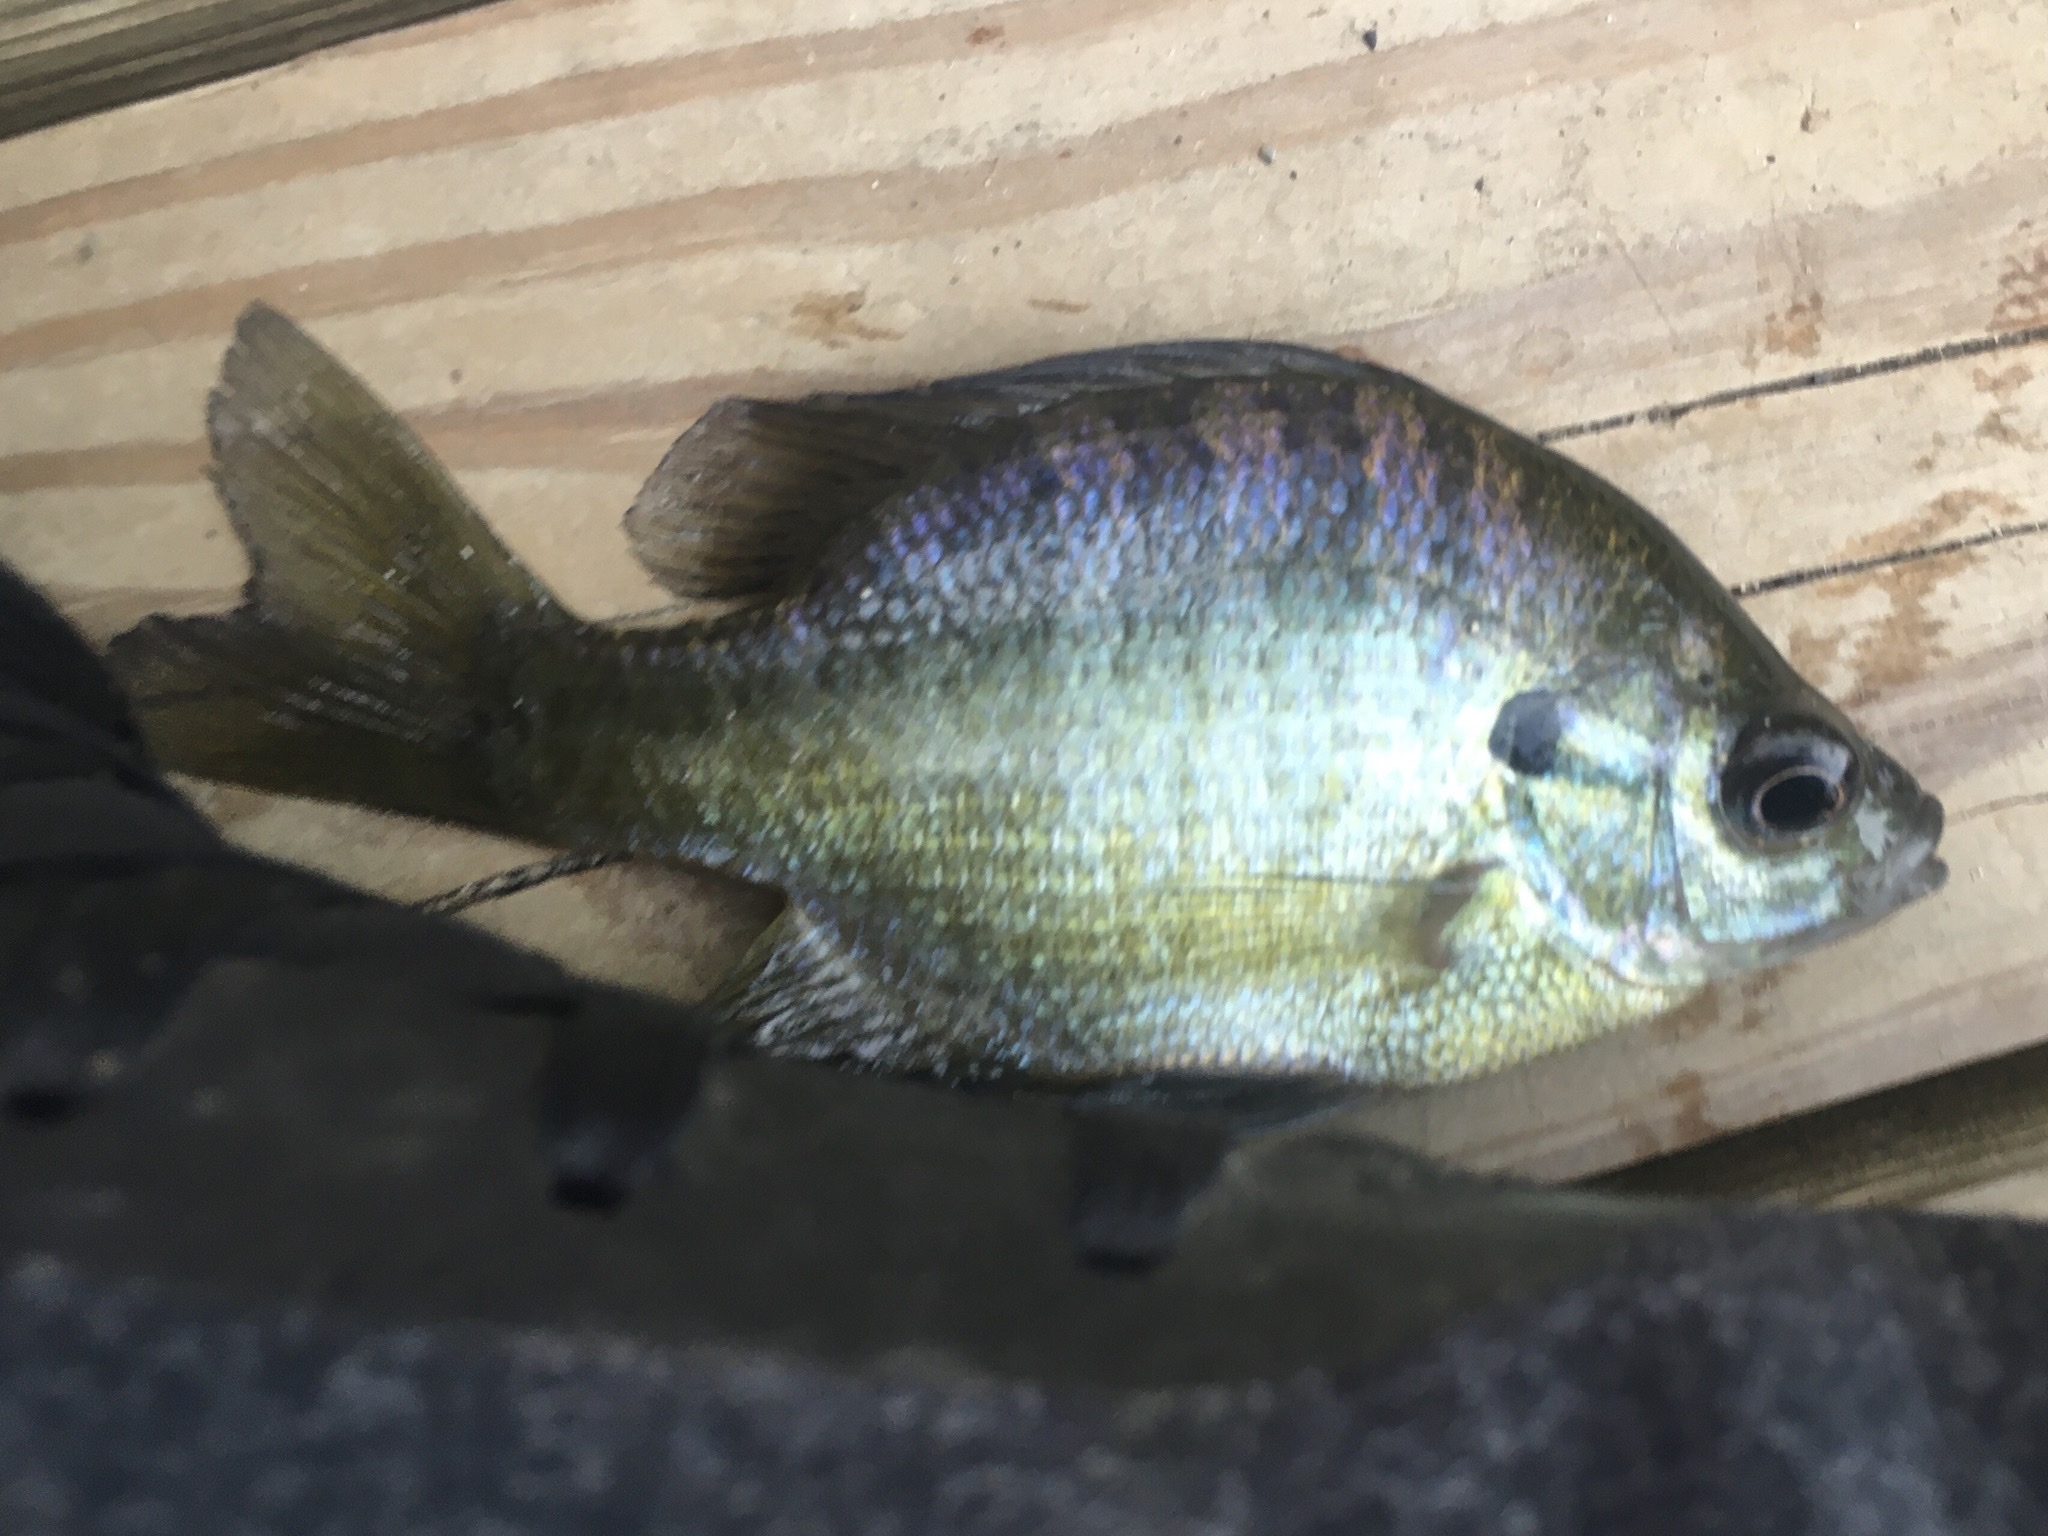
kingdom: Animalia
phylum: Chordata
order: Perciformes
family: Centrarchidae
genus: Lepomis
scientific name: Lepomis macrochirus
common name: Bluegill
